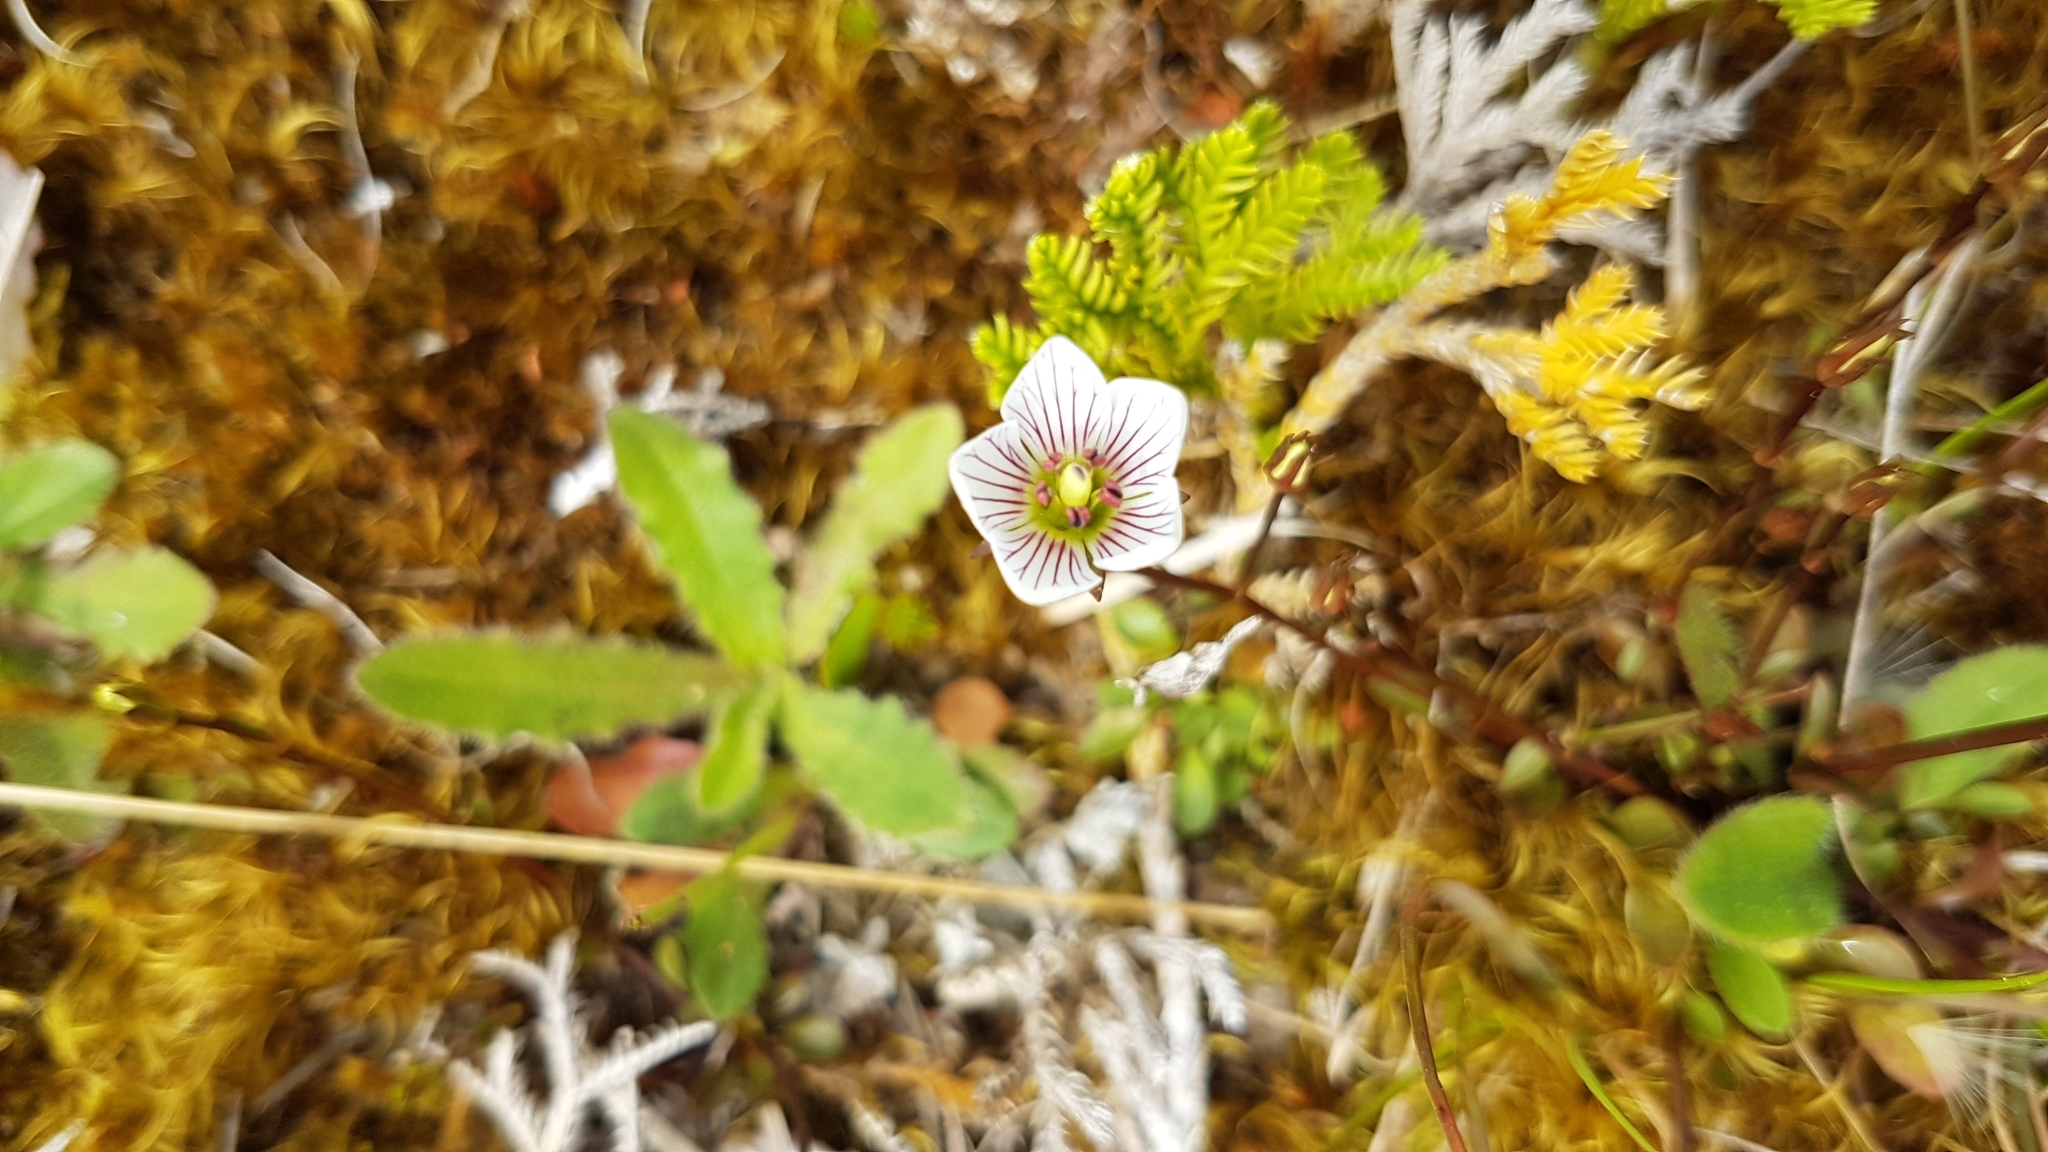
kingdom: Plantae
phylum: Tracheophyta
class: Magnoliopsida
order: Gentianales
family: Gentianaceae
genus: Gentianella
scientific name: Gentianella montana
